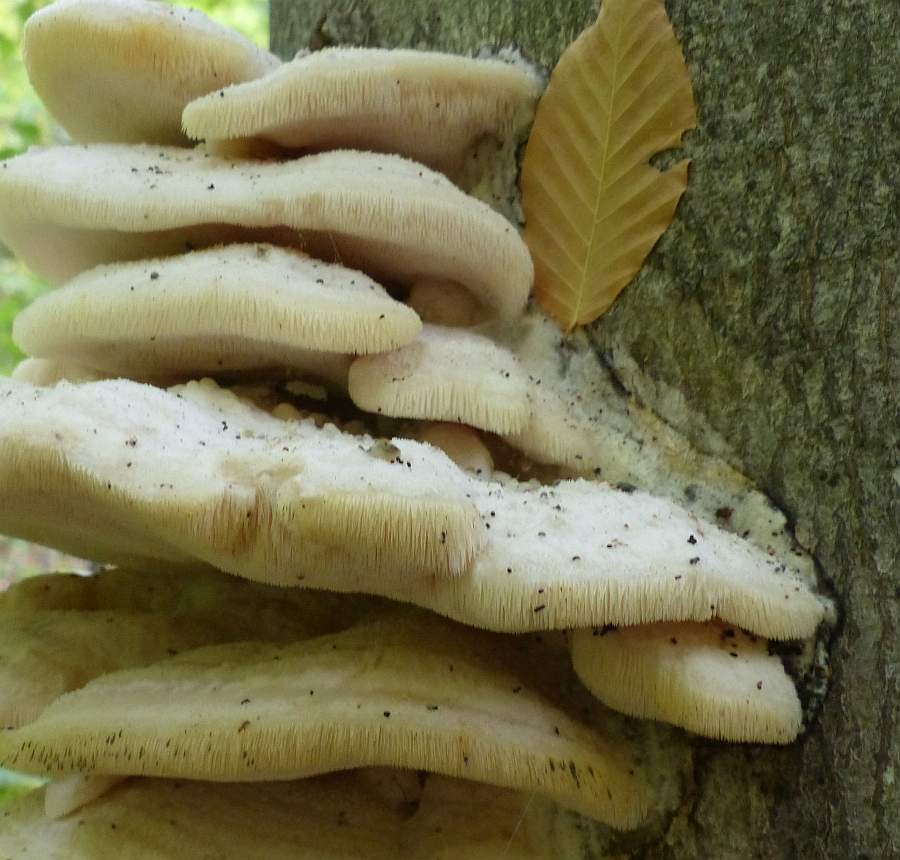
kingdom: Fungi
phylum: Basidiomycota
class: Agaricomycetes
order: Polyporales
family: Meruliaceae
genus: Climacodon
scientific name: Climacodon septentrionalis
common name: Northern tooth
